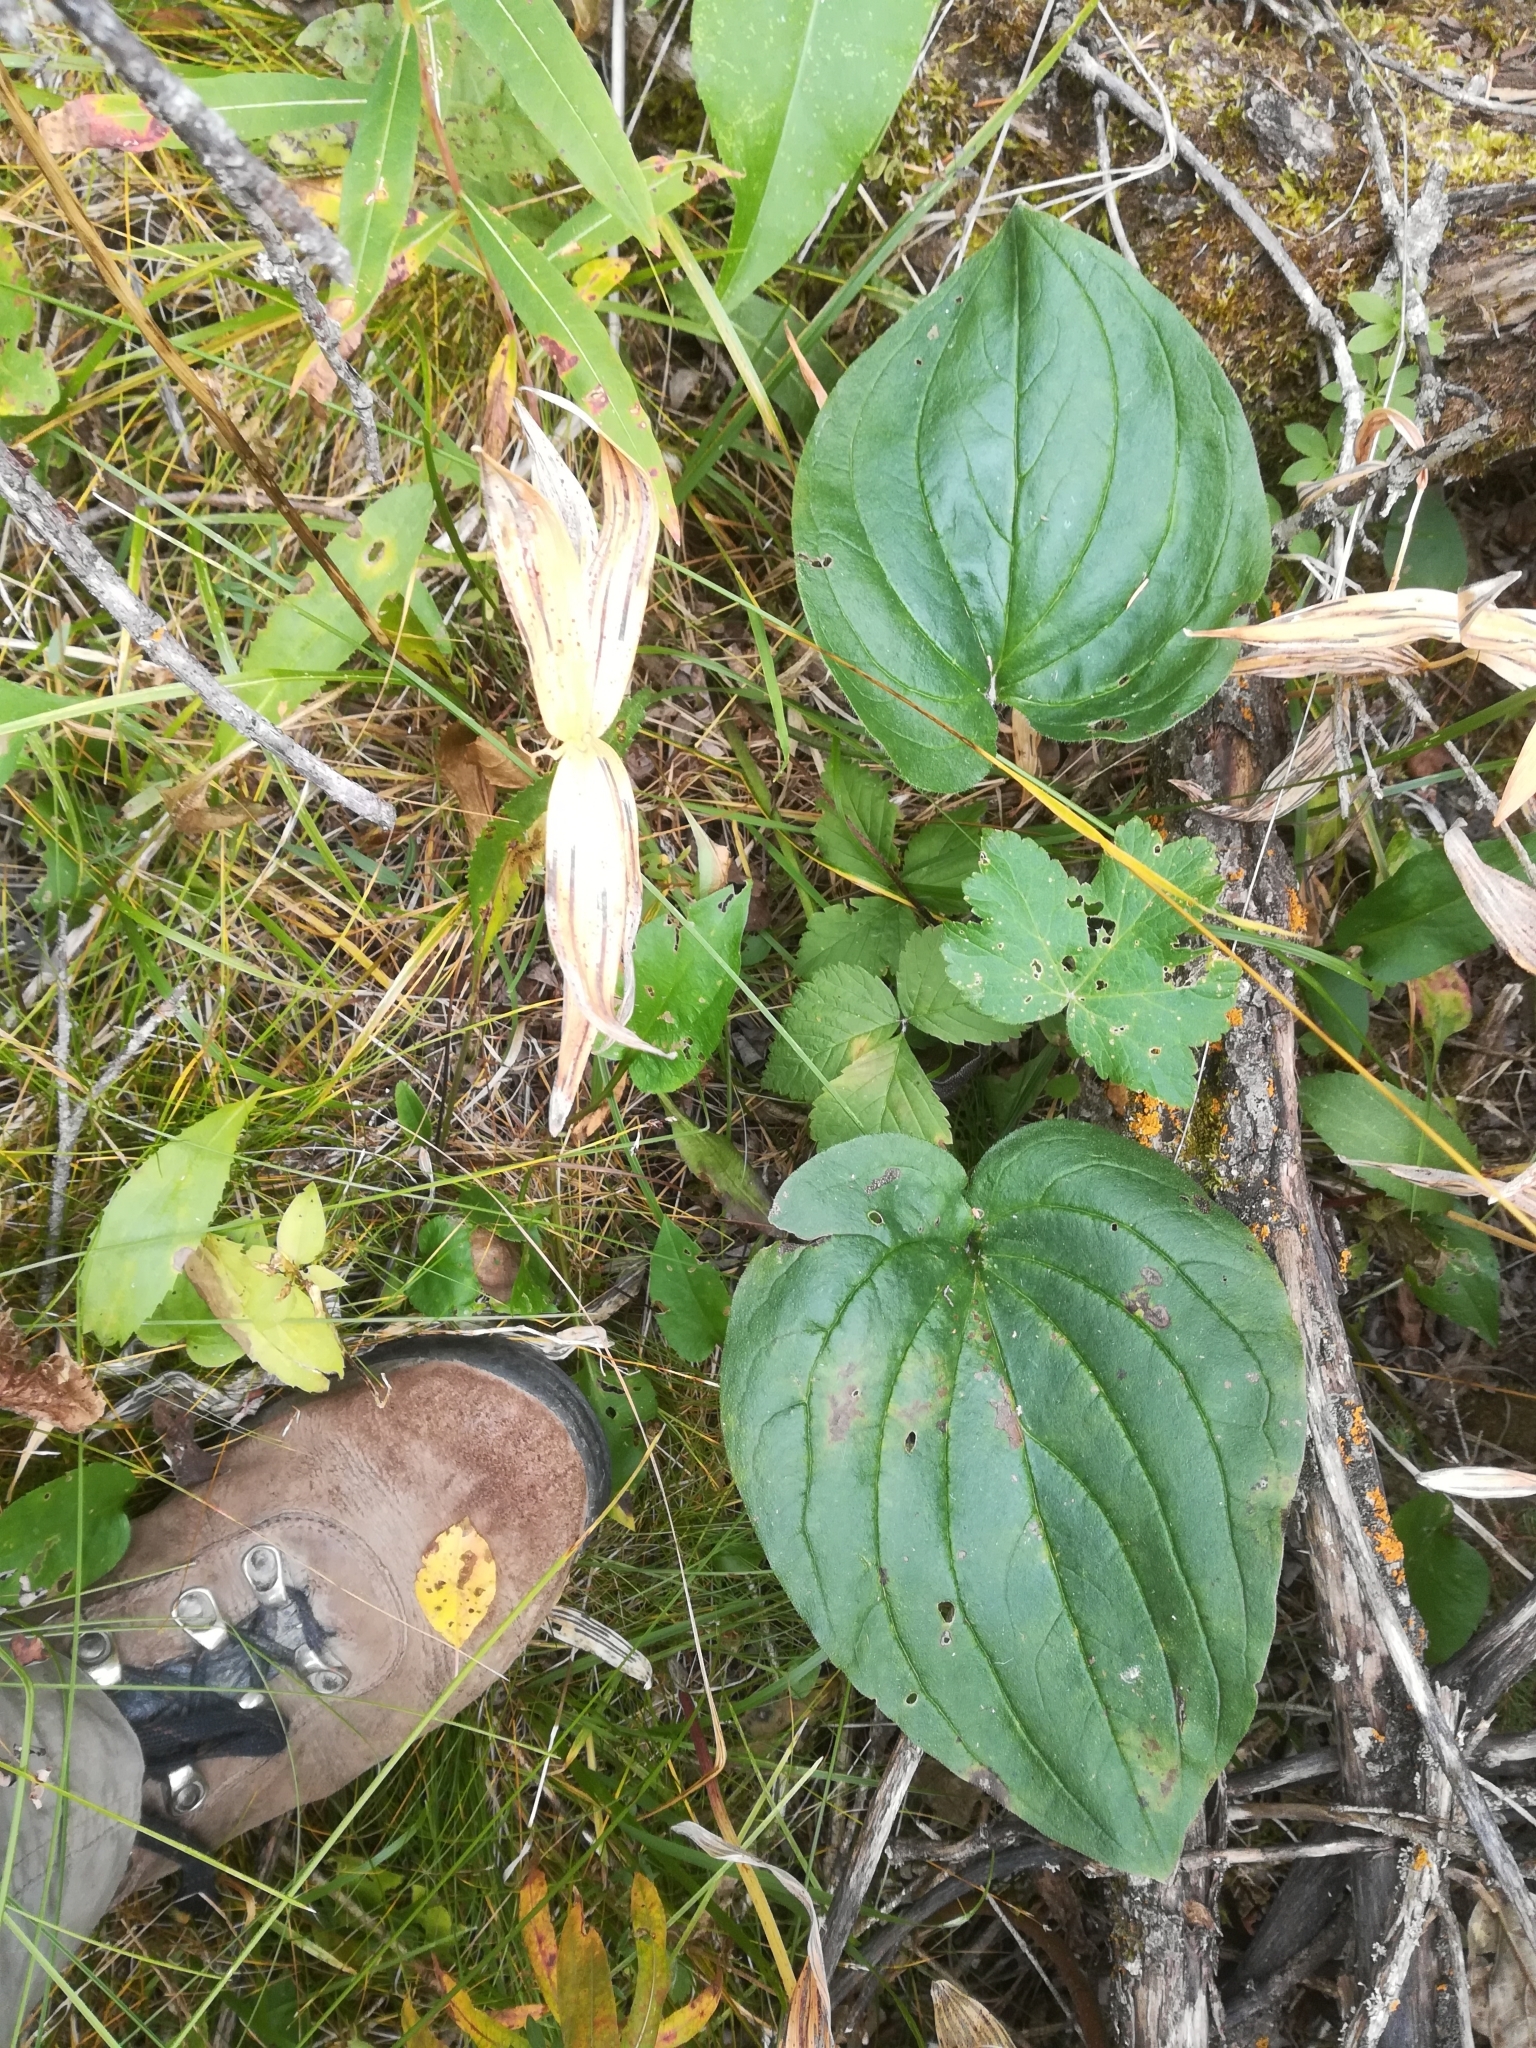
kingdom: Plantae
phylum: Tracheophyta
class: Magnoliopsida
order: Boraginales
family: Boraginaceae
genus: Mertensia
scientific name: Mertensia paniculata
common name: Panicled bluebells
